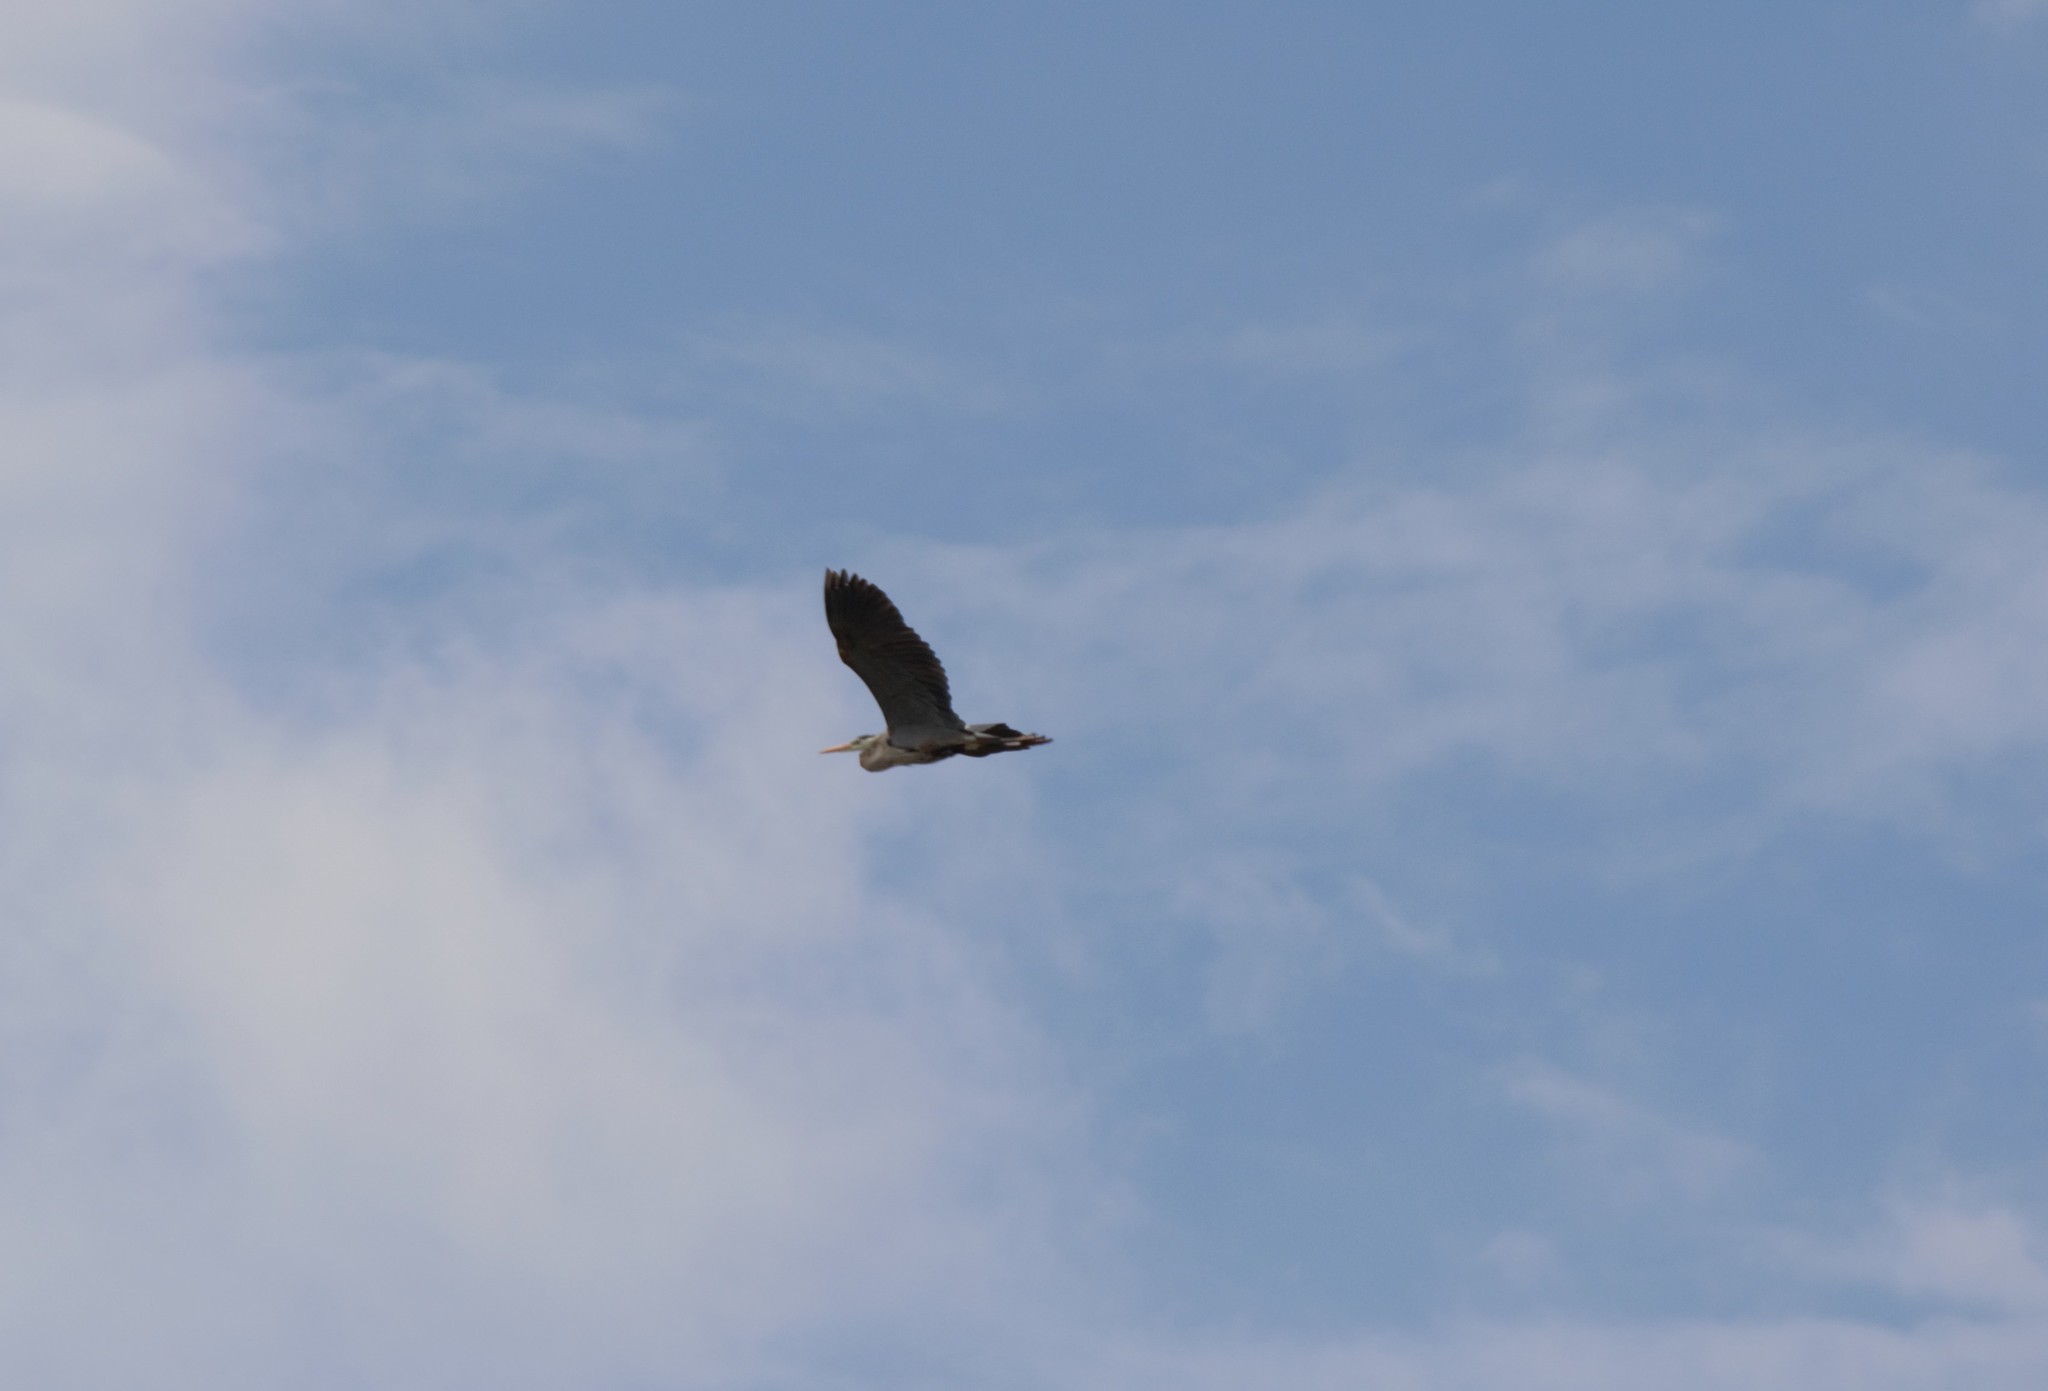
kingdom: Animalia
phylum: Chordata
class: Aves
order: Pelecaniformes
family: Ardeidae
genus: Ardea
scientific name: Ardea herodias
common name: Great blue heron
